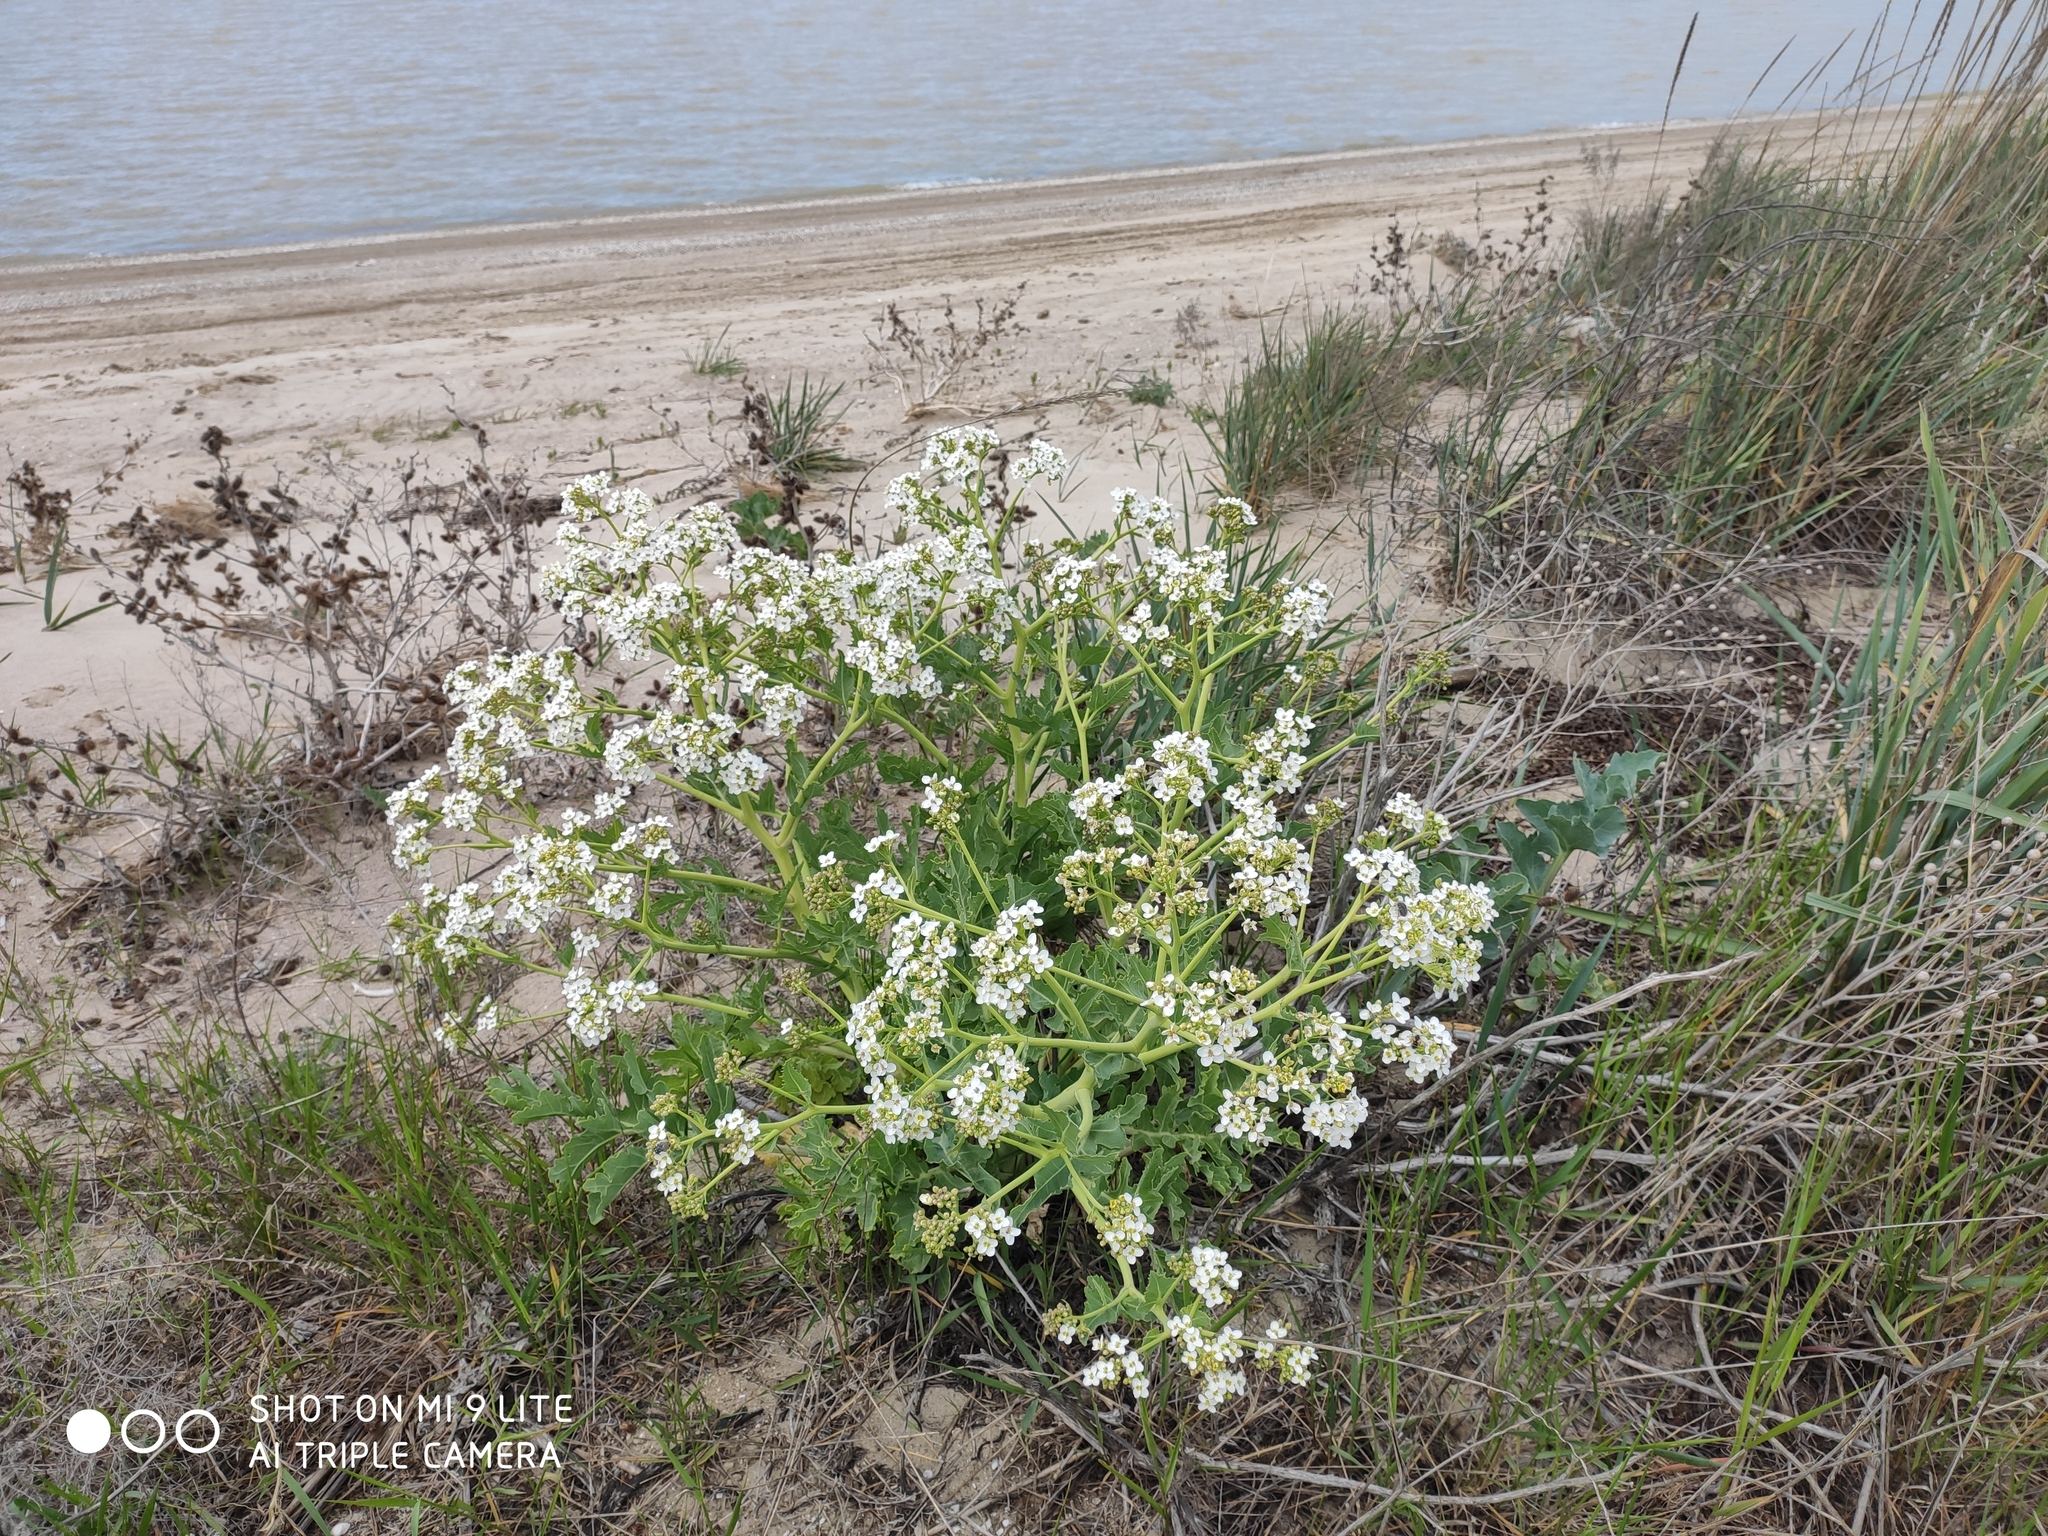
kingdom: Plantae
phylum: Tracheophyta
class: Magnoliopsida
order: Brassicales
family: Brassicaceae
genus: Crambe
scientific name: Crambe maritima
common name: Sea-kale
